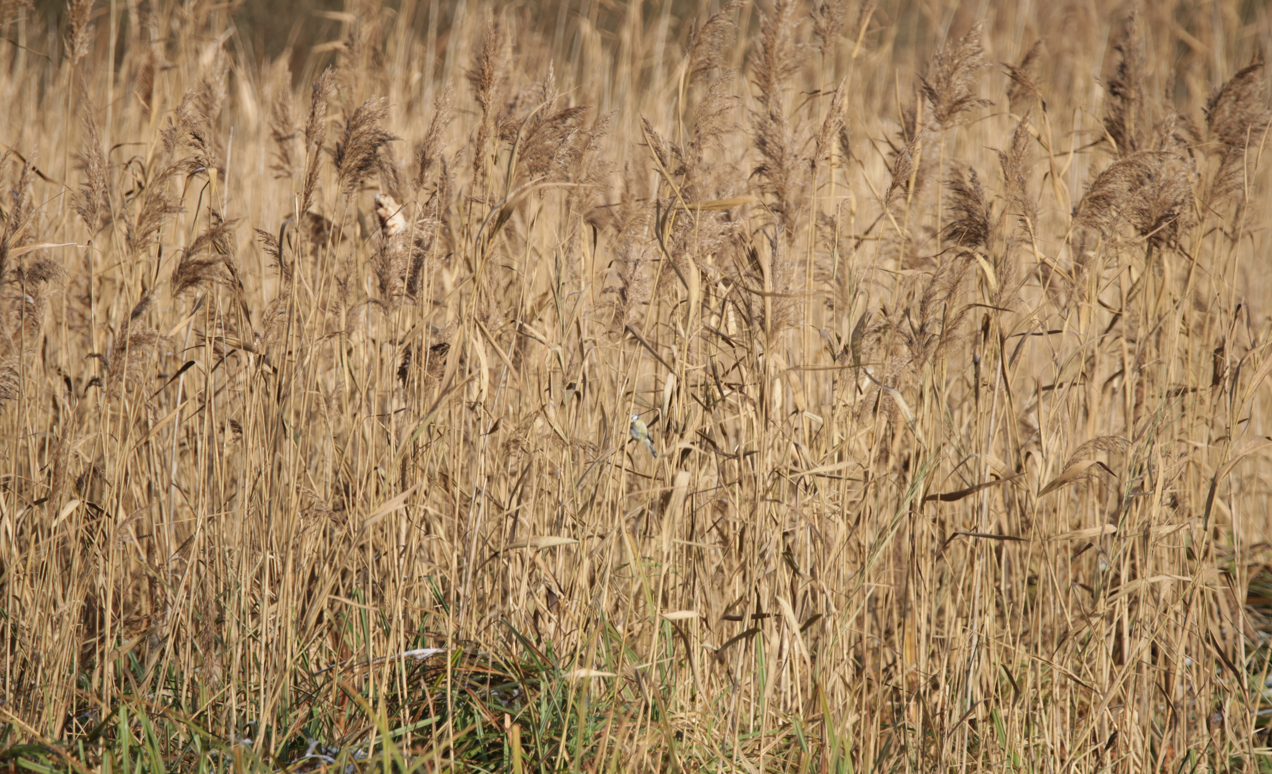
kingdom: Plantae
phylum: Tracheophyta
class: Liliopsida
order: Poales
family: Poaceae
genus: Phragmites
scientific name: Phragmites australis
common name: Common reed
